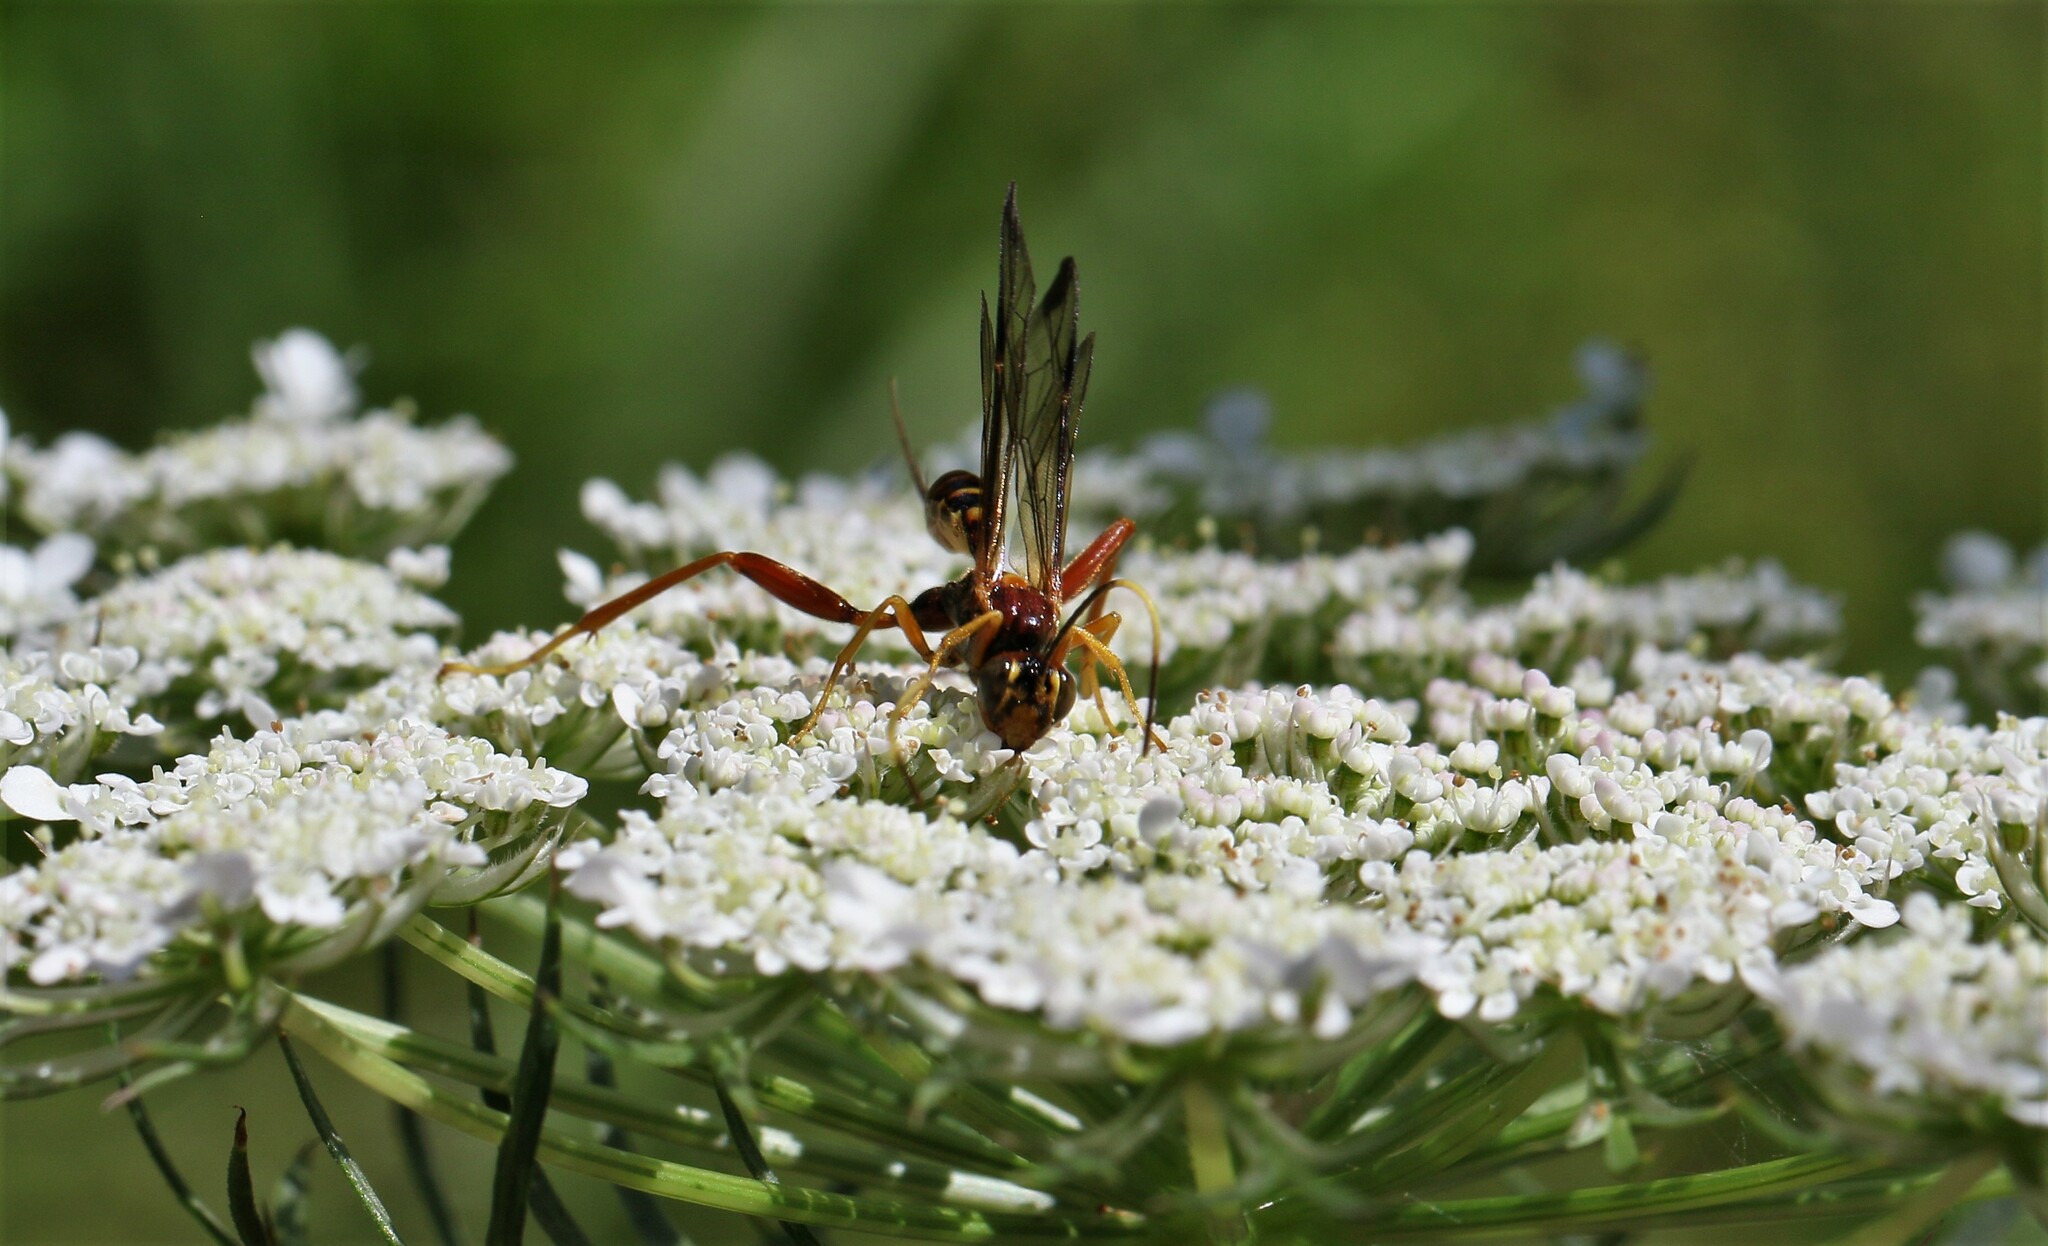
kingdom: Animalia
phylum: Arthropoda
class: Insecta
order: Hymenoptera
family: Ichneumonidae
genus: Spilopteron
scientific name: Spilopteron vicinum
